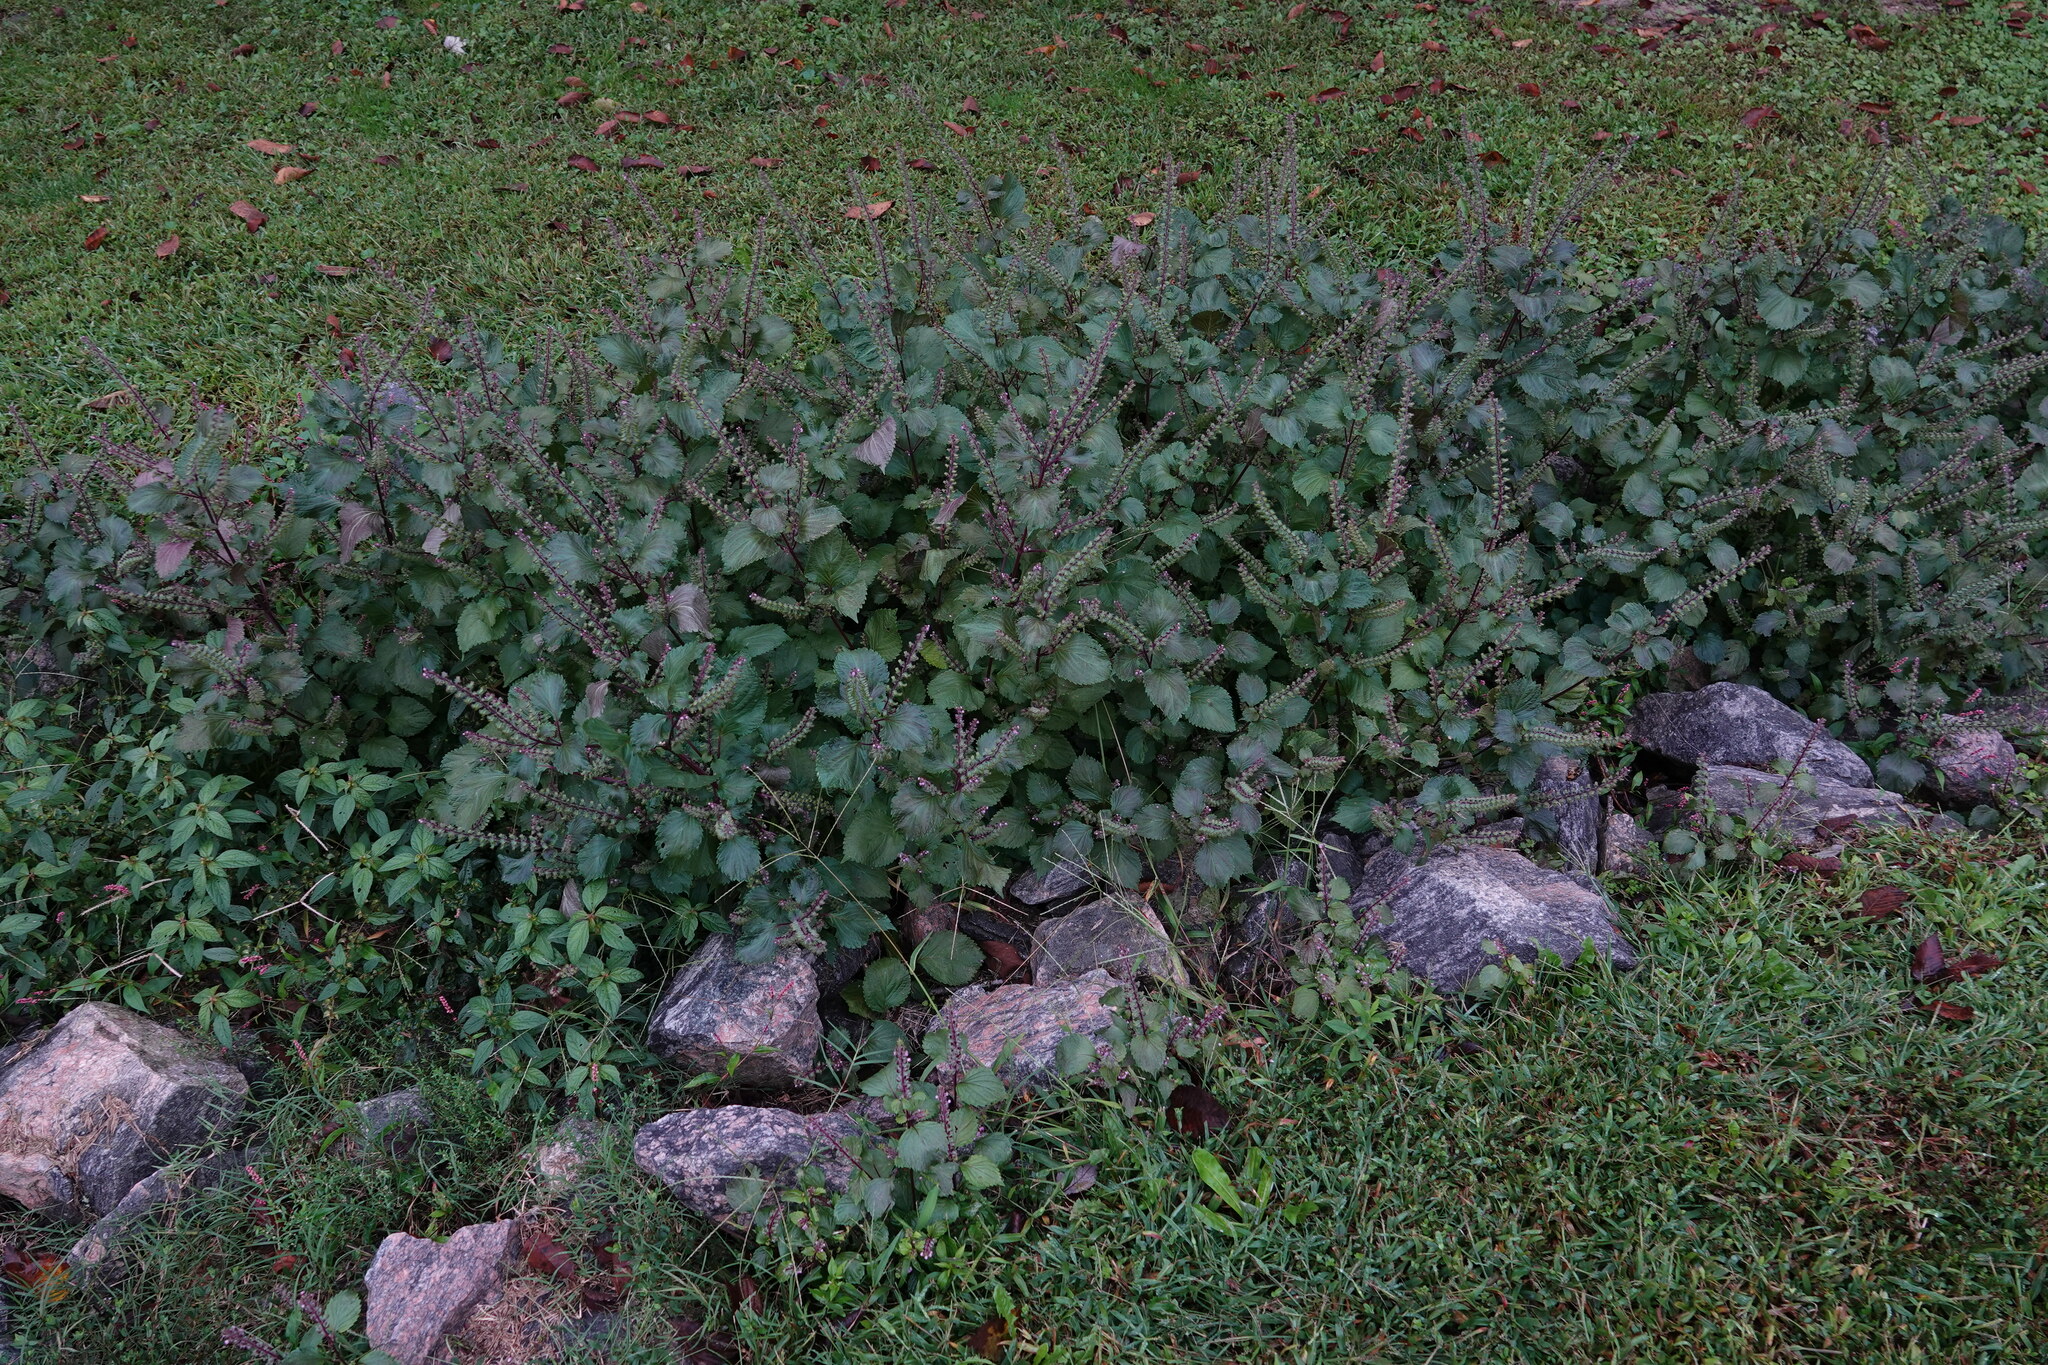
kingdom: Plantae
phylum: Tracheophyta
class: Magnoliopsida
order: Lamiales
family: Lamiaceae
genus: Perilla
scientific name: Perilla frutescens
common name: Perilla
